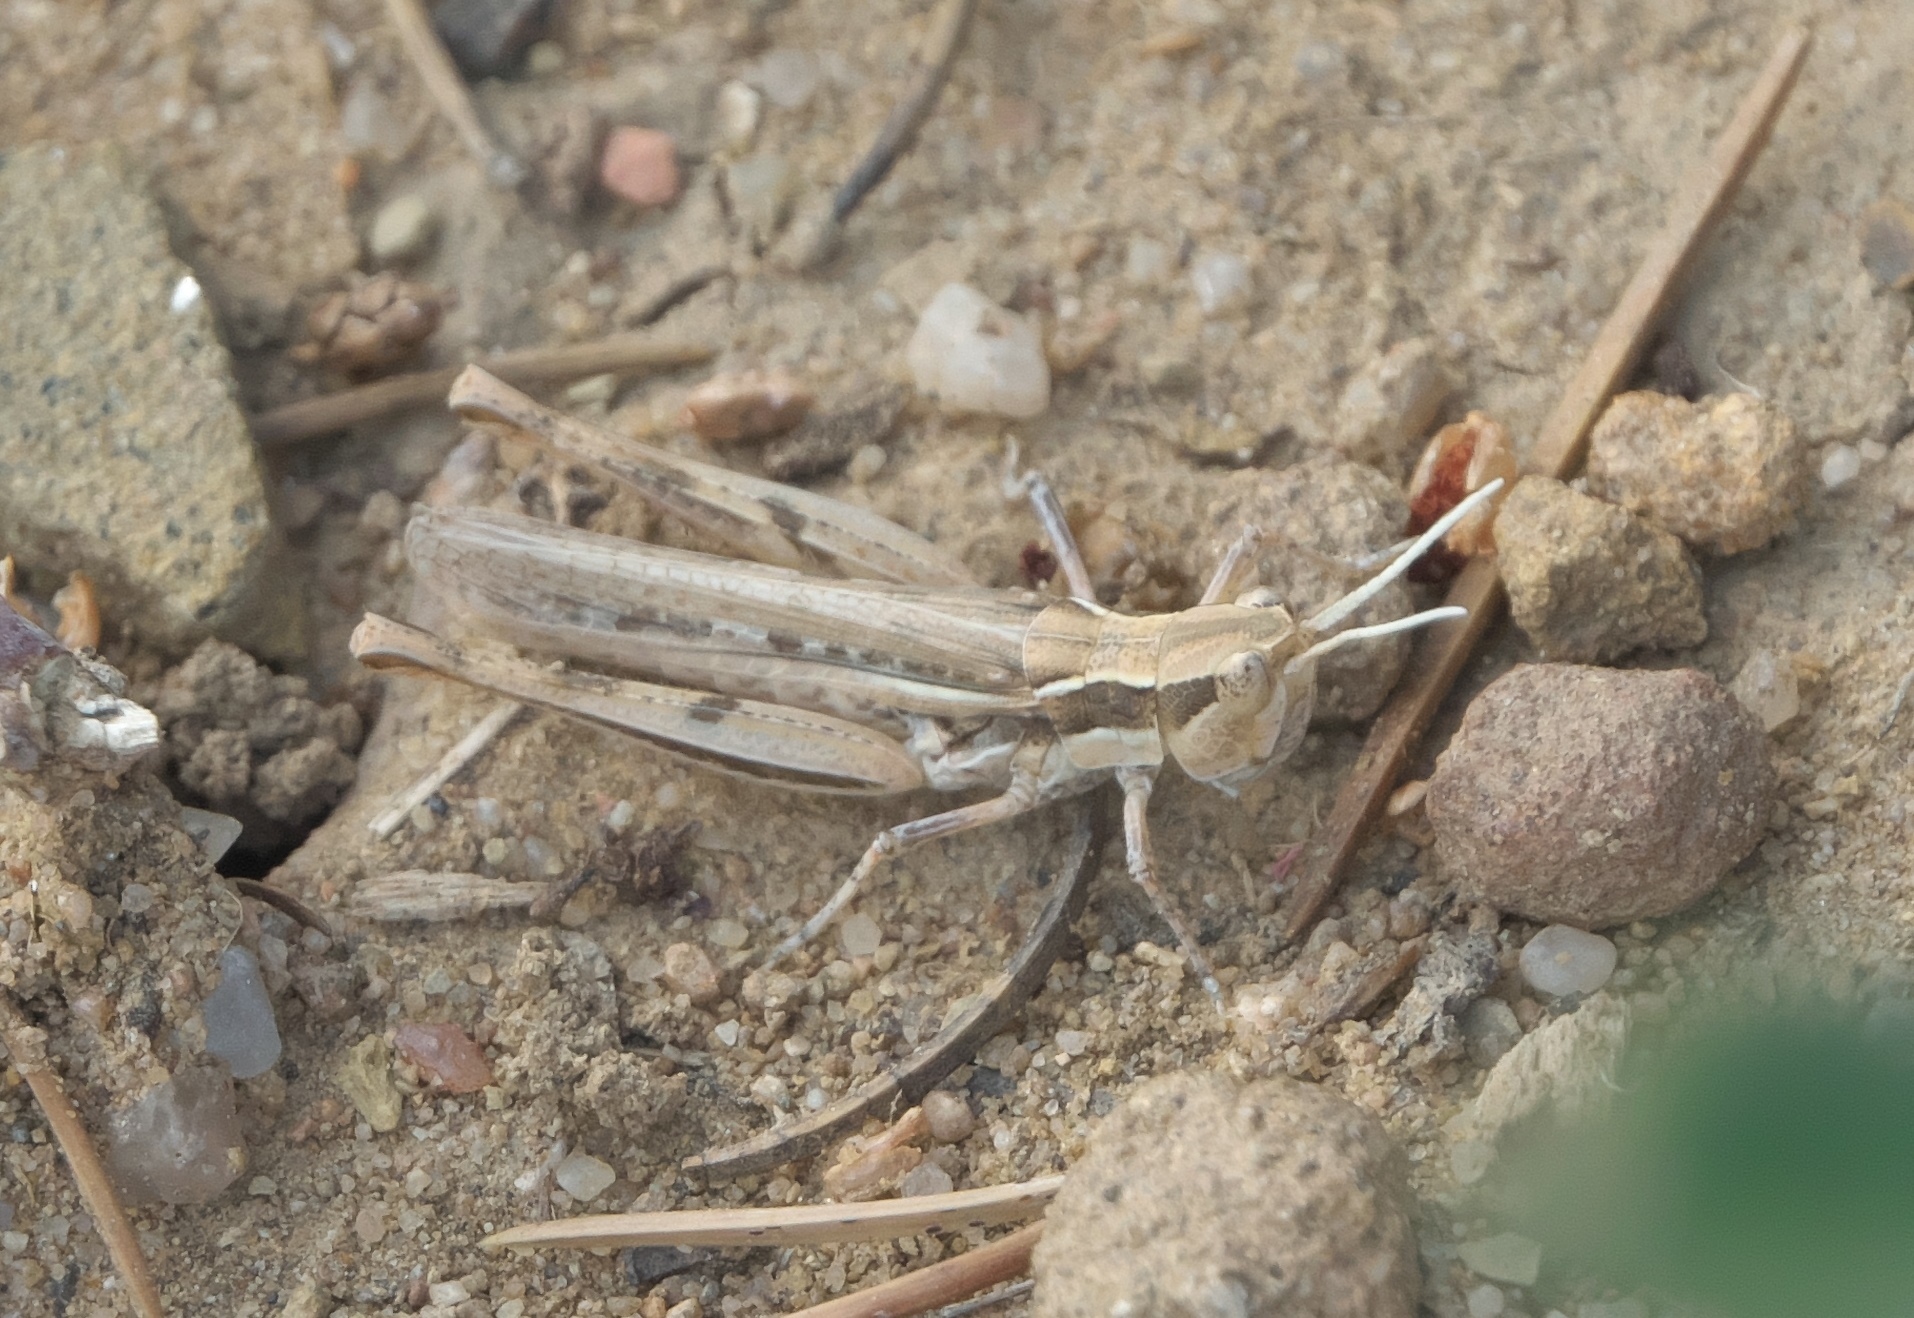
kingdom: Animalia
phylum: Arthropoda
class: Insecta
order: Orthoptera
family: Acrididae
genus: Cordillacris
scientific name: Cordillacris occipitalis
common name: Spotted-winged grasshopper
